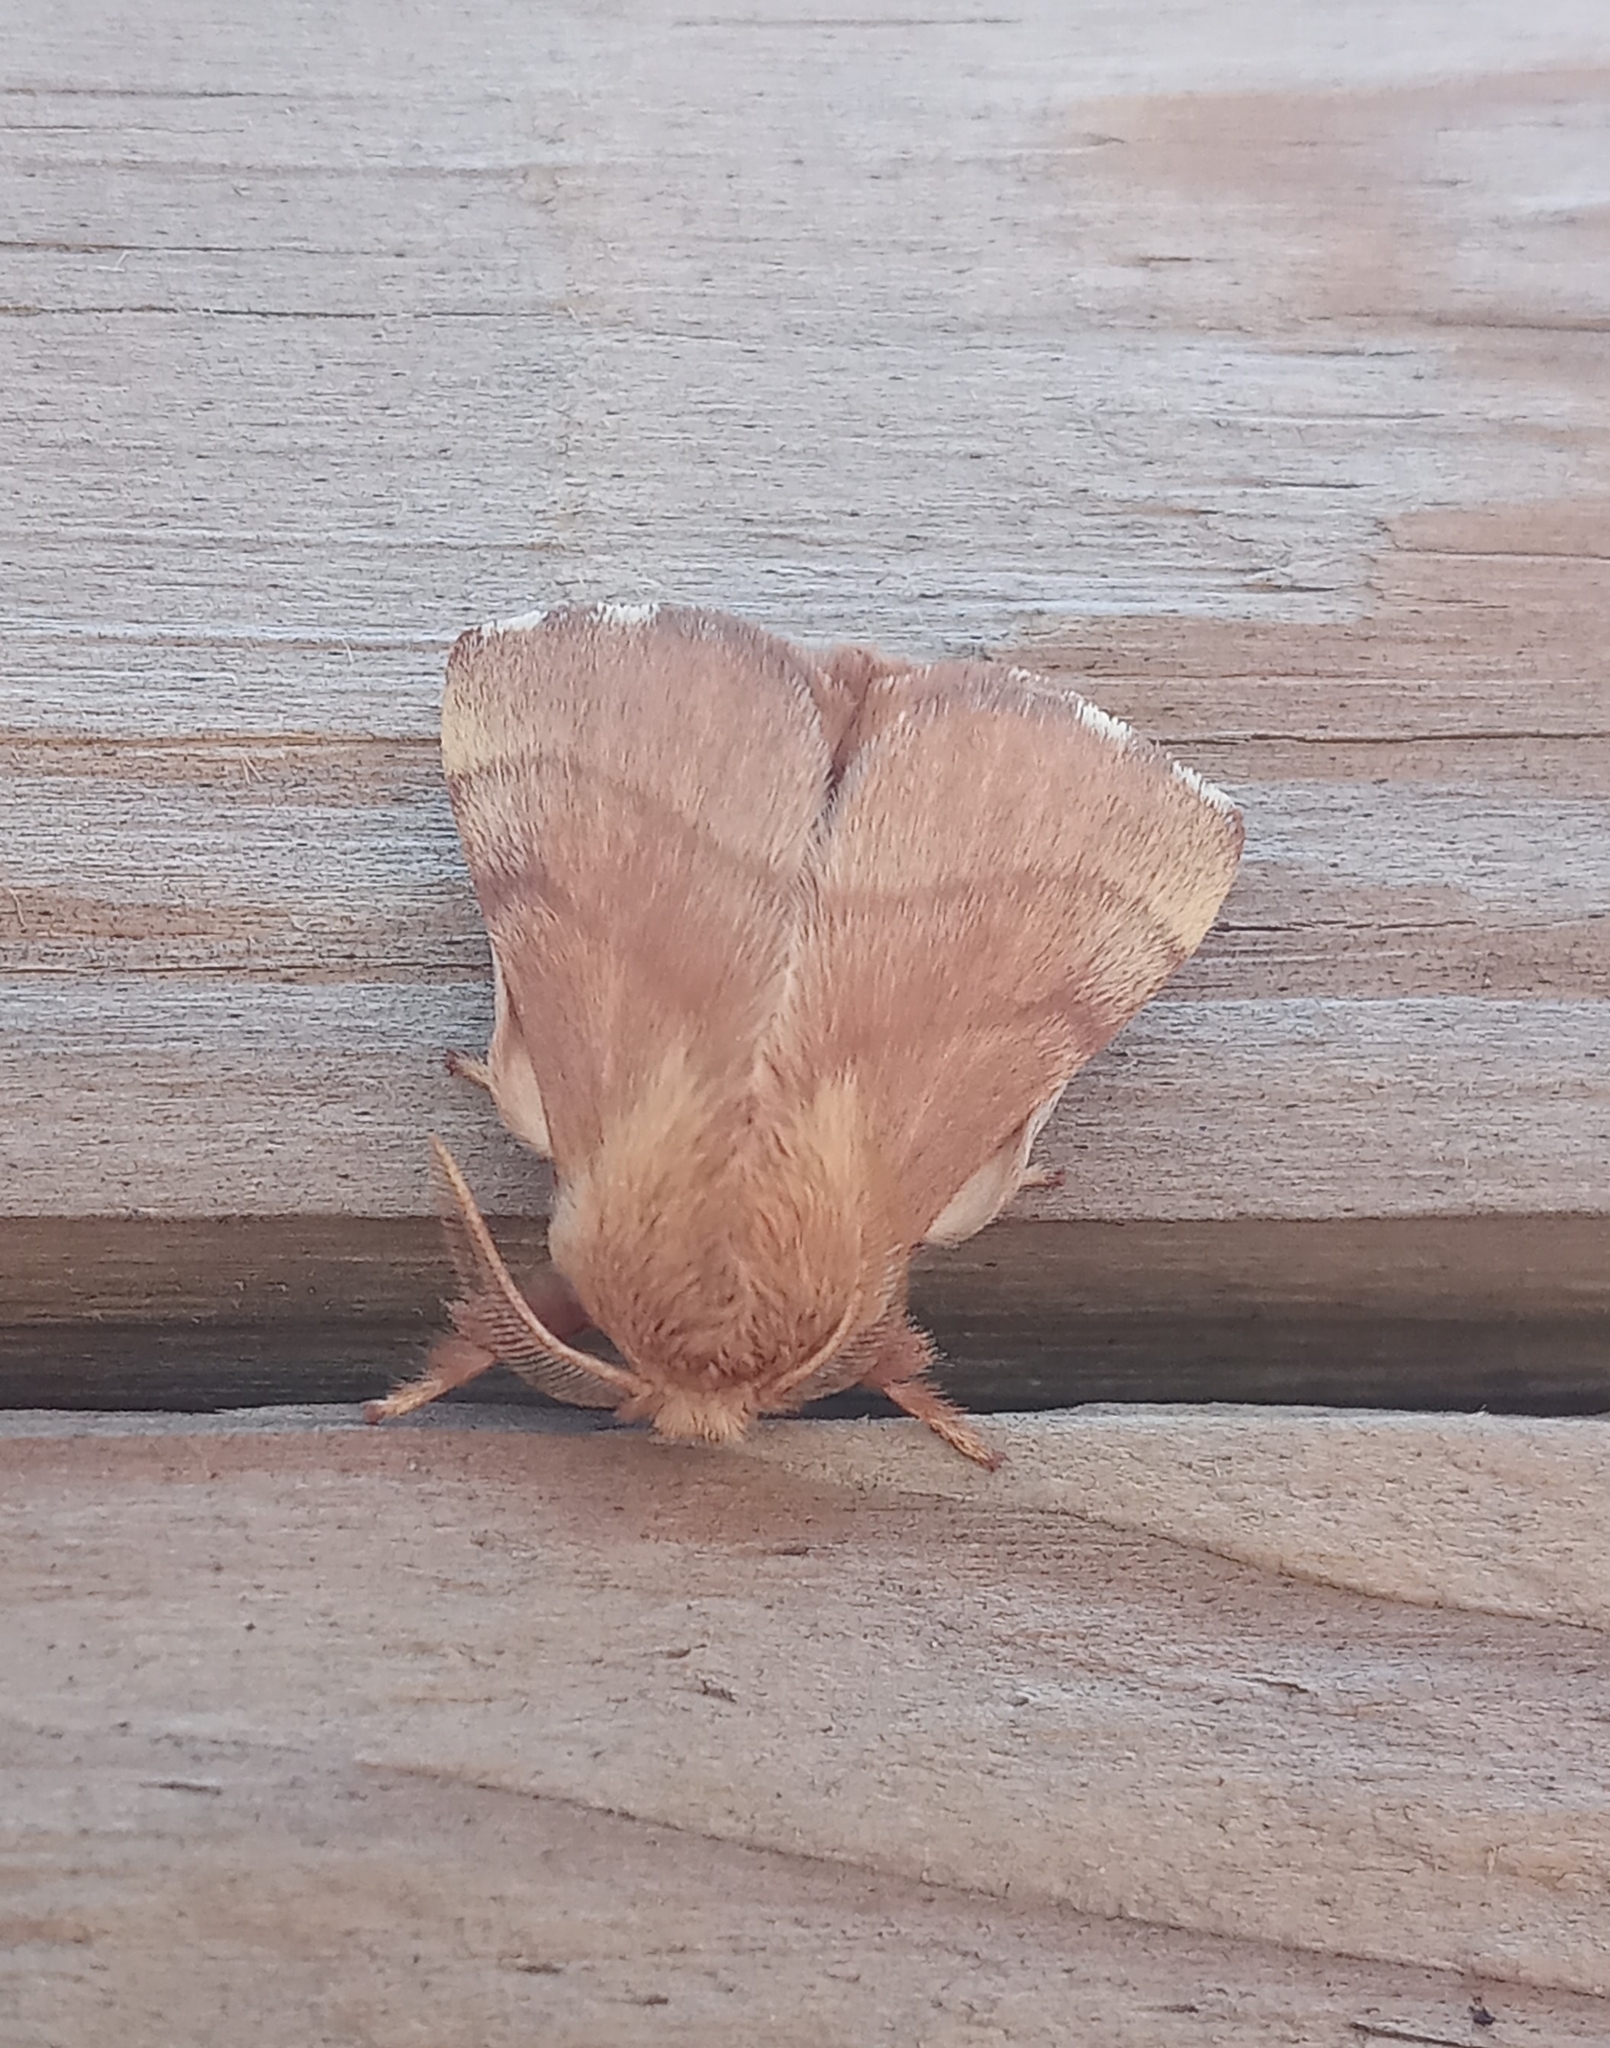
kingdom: Animalia
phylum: Arthropoda
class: Insecta
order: Lepidoptera
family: Lasiocampidae
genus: Malacosoma
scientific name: Malacosoma disstria
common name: Forest tent caterpillar
